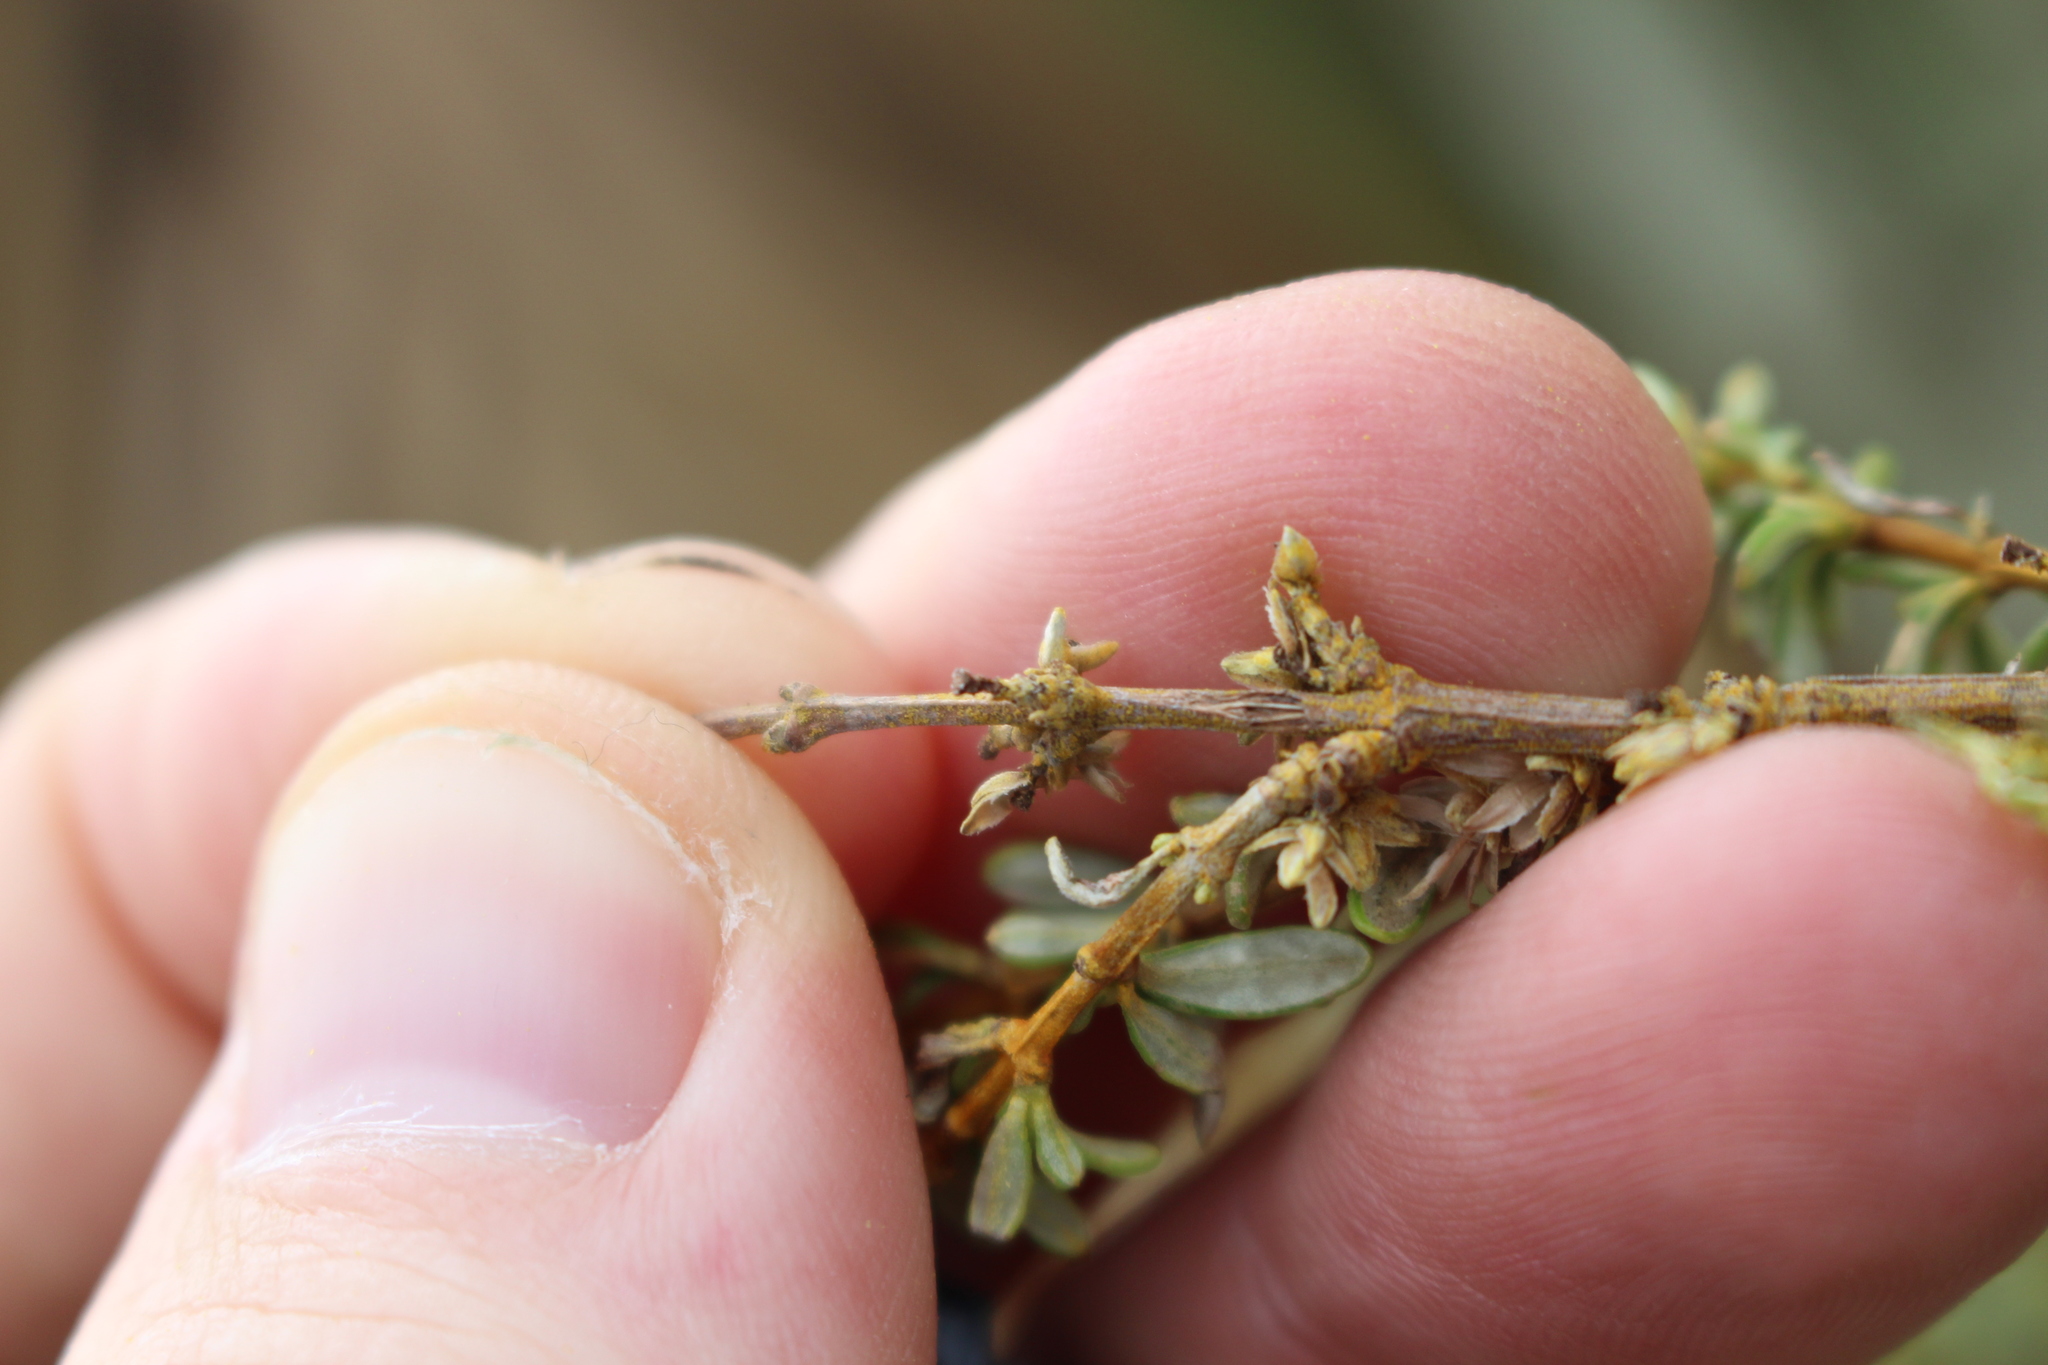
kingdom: Plantae
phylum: Tracheophyta
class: Magnoliopsida
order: Asterales
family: Asteraceae
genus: Olearia
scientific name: Olearia solandri
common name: Coastal daisybush
